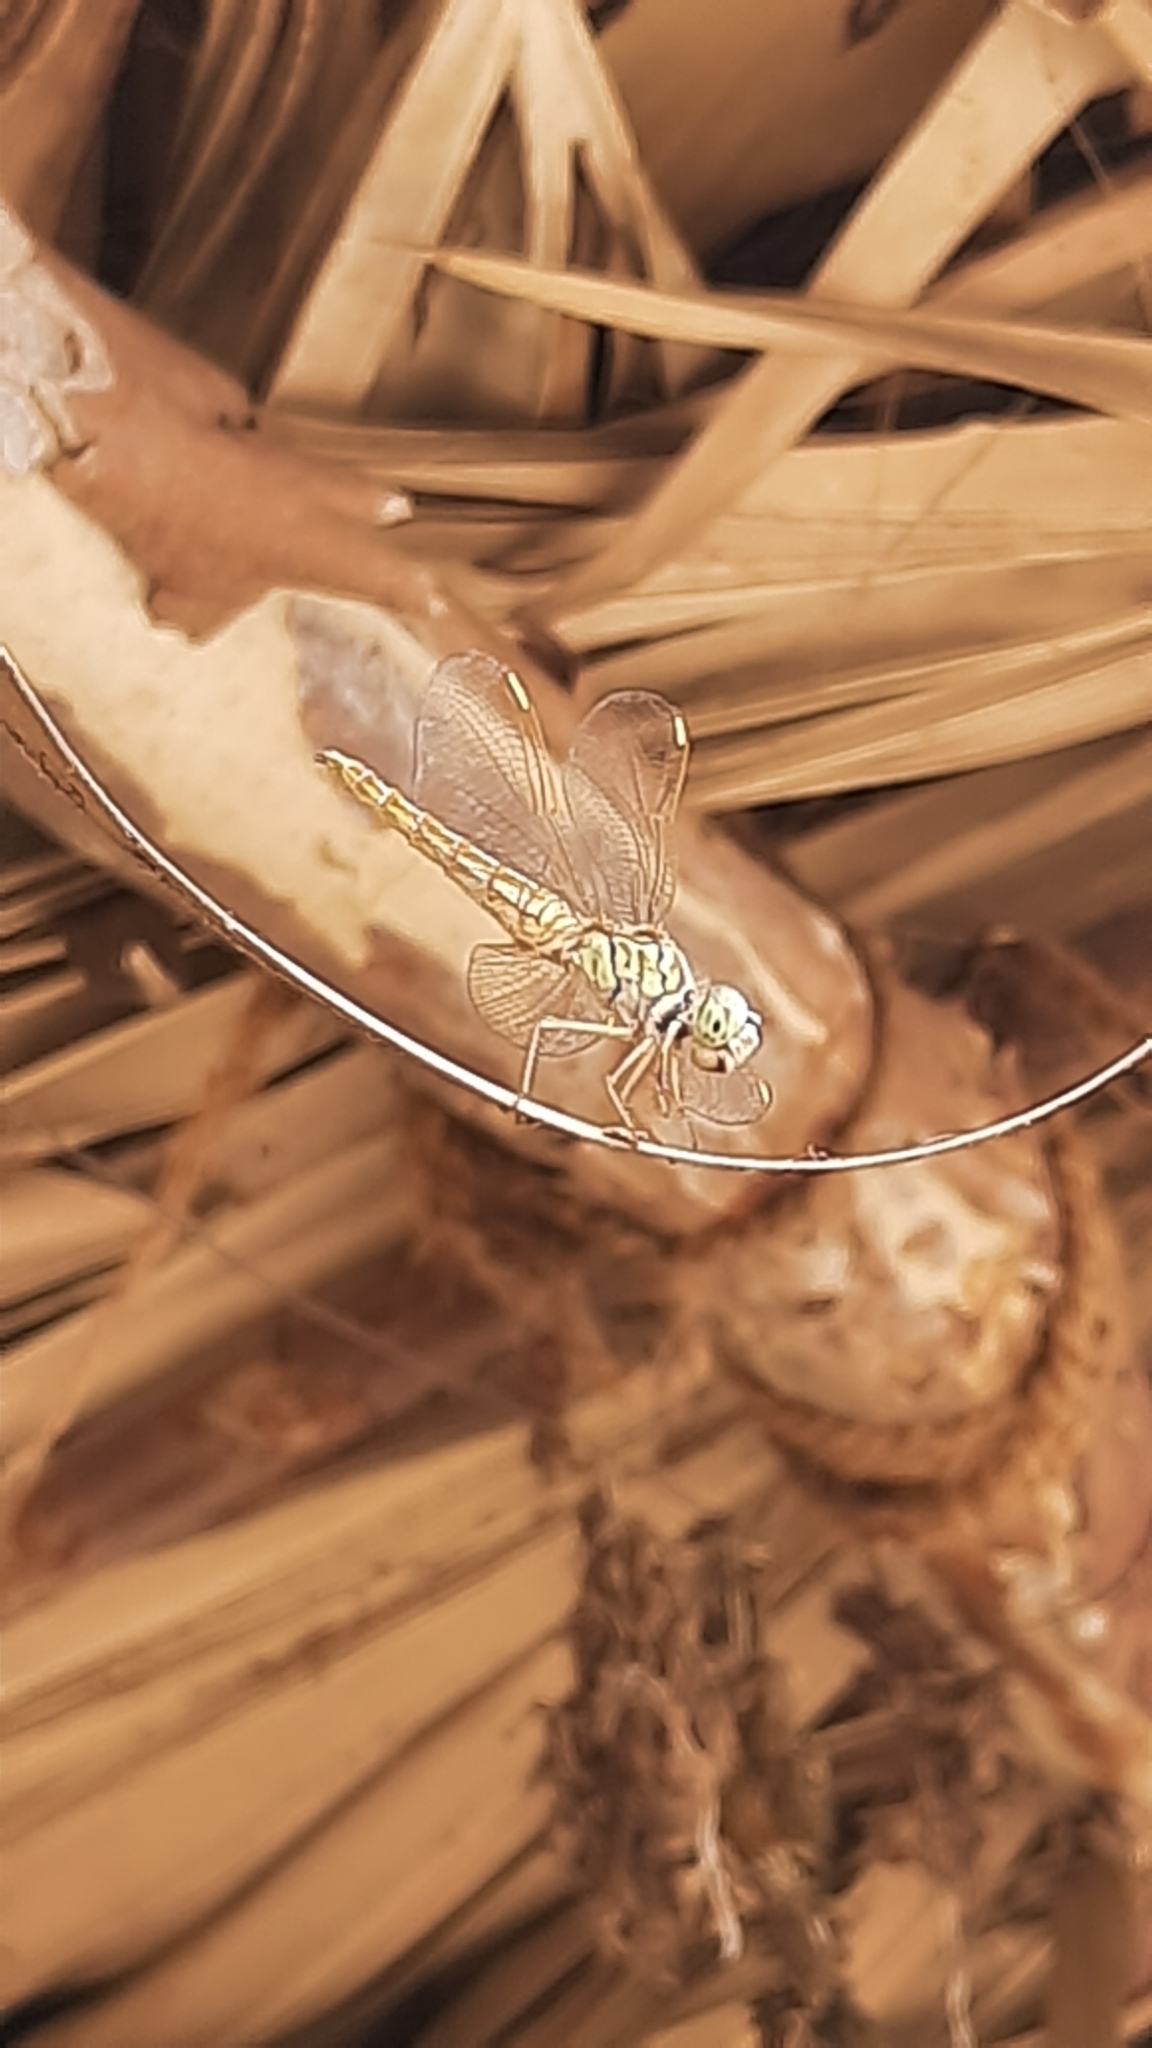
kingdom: Animalia
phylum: Arthropoda
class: Insecta
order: Odonata
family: Libellulidae
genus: Brachythemis
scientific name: Brachythemis contaminata
